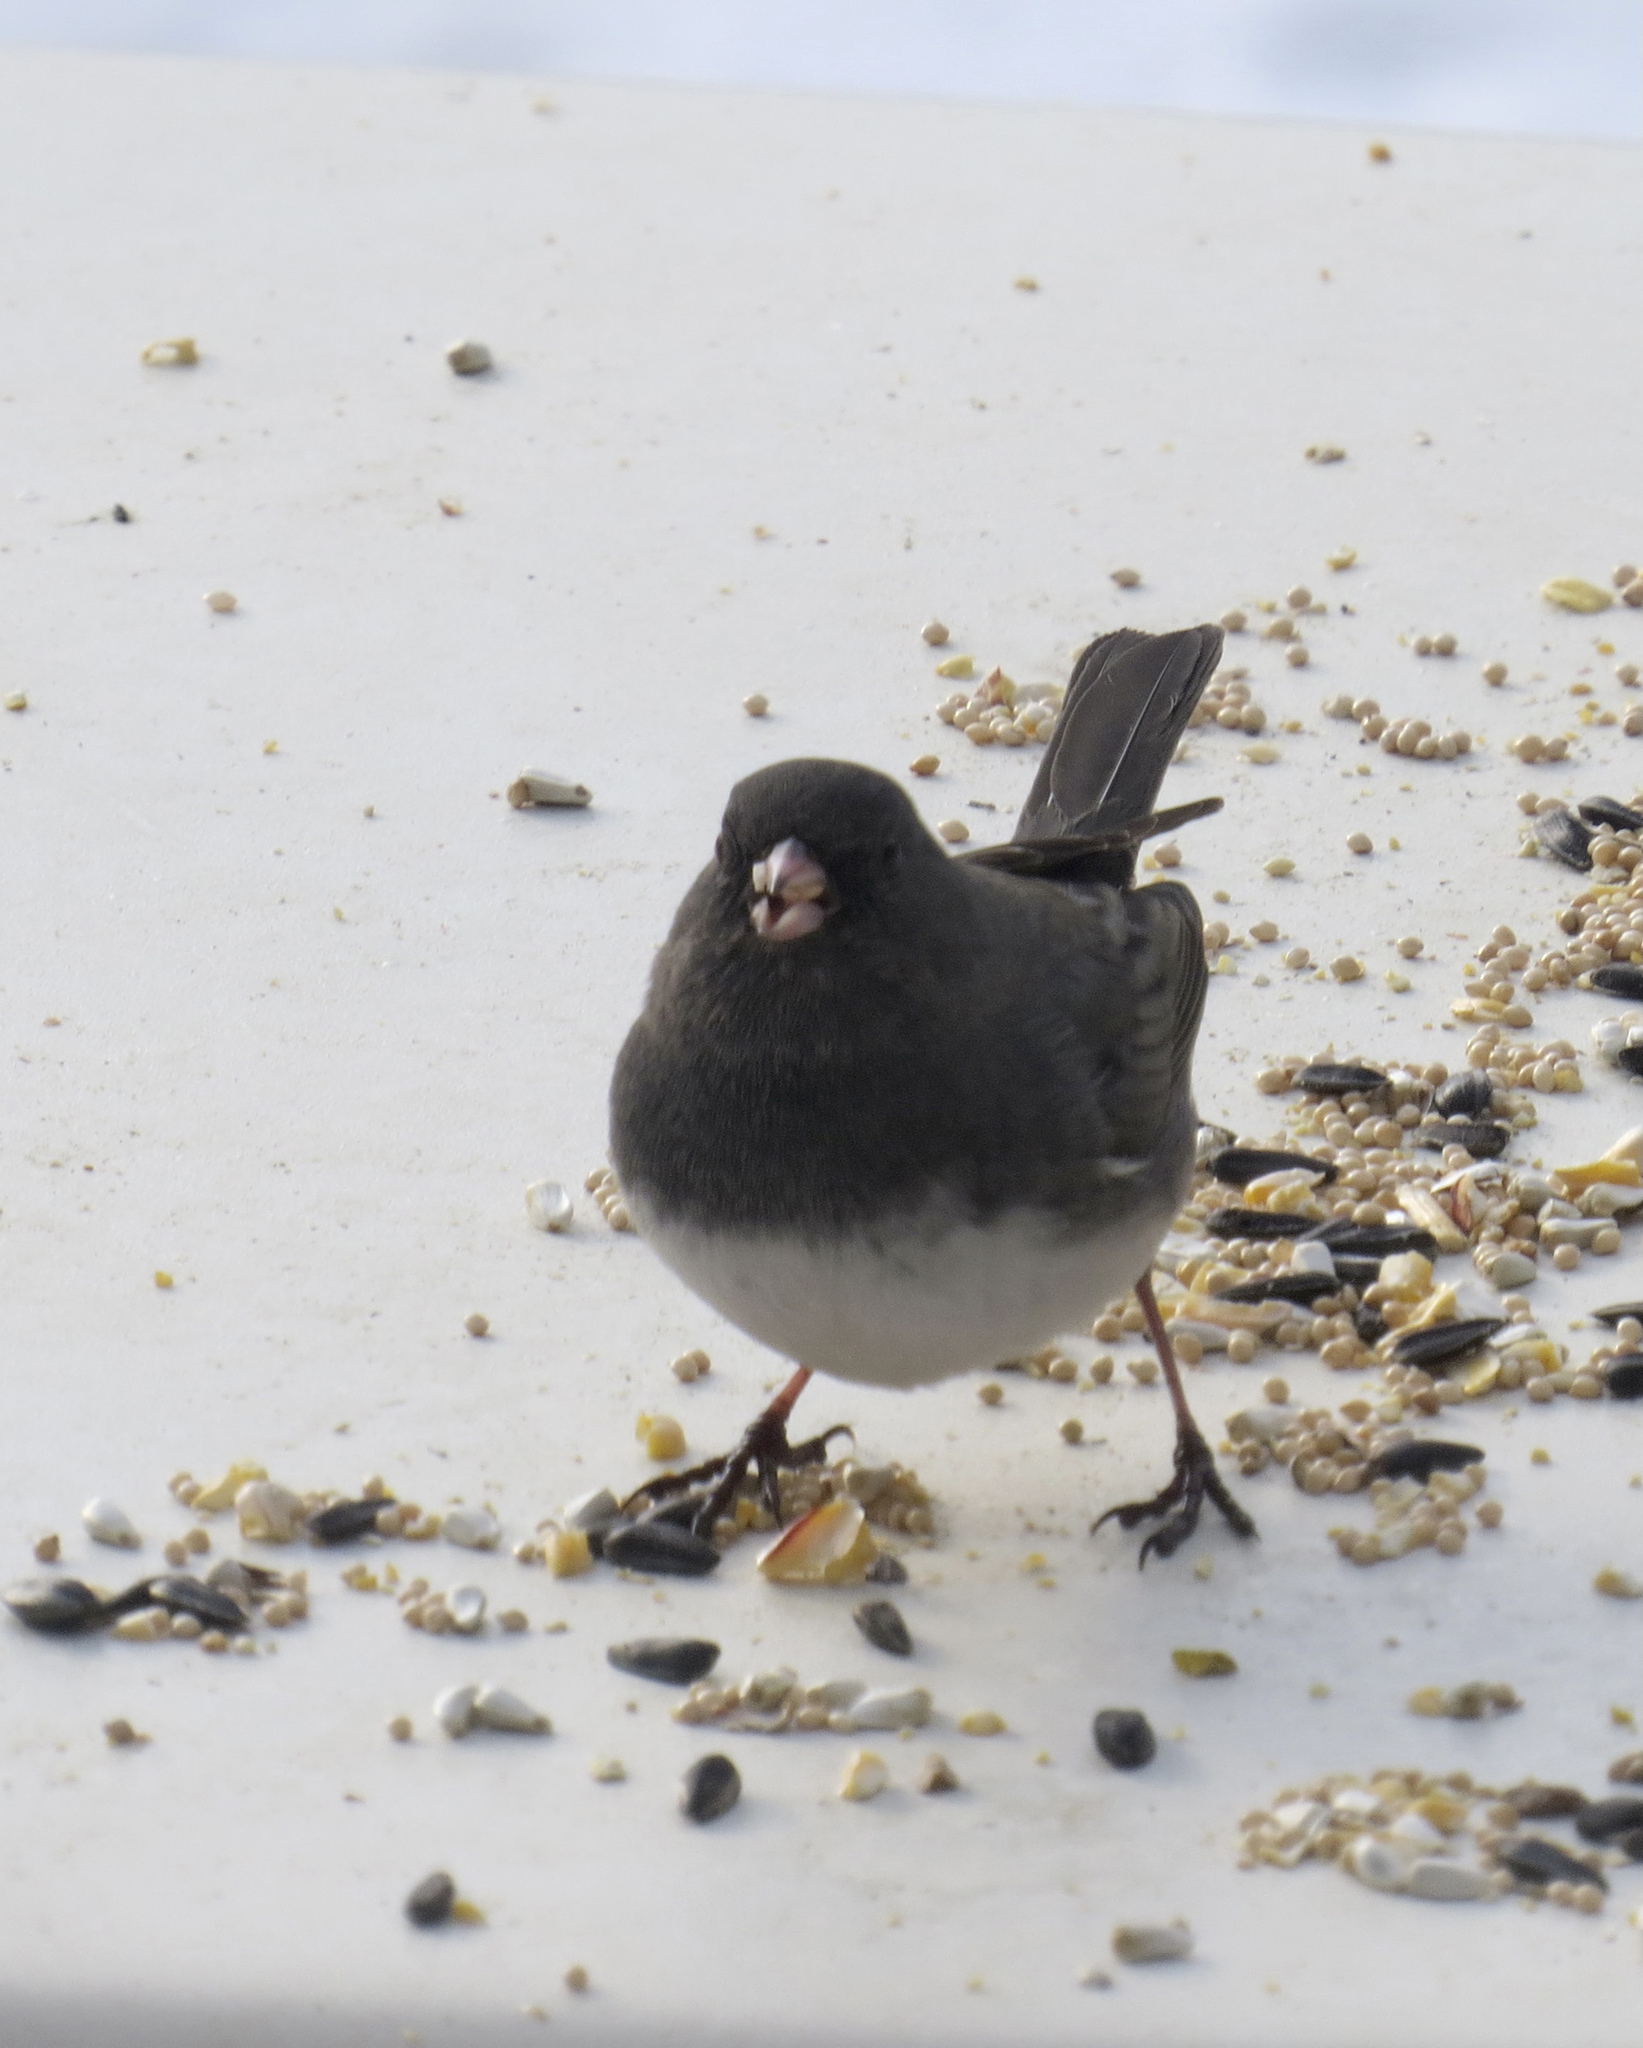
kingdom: Animalia
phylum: Chordata
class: Aves
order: Passeriformes
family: Passerellidae
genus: Junco
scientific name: Junco hyemalis
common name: Dark-eyed junco
